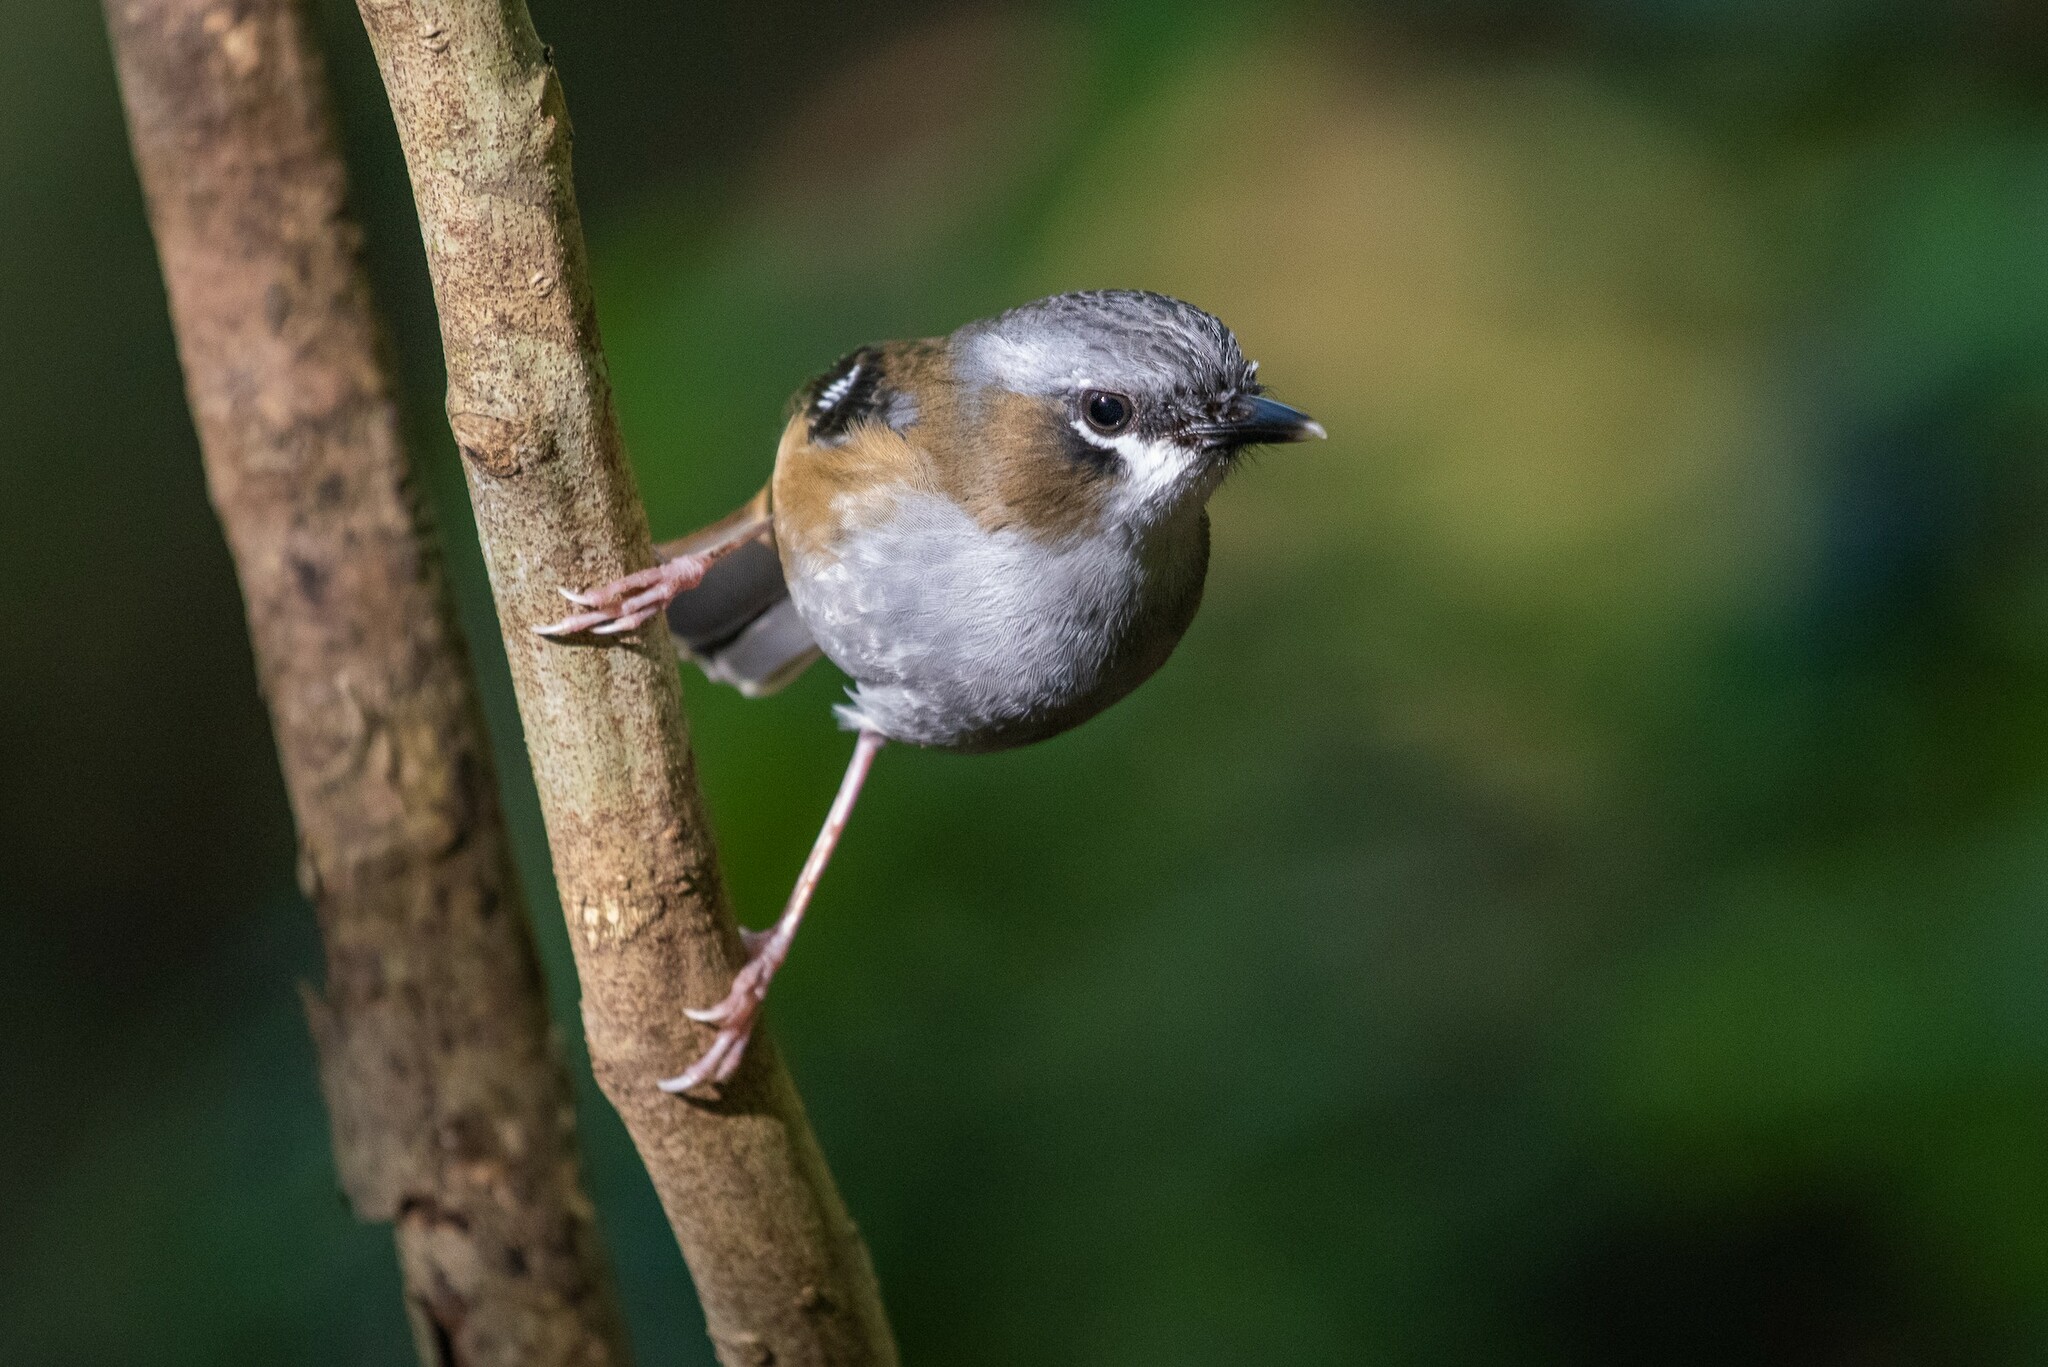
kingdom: Animalia
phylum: Chordata
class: Aves
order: Passeriformes
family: Petroicidae
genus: Heteromyias
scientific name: Heteromyias cinereifrons
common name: Grey-headed robin
